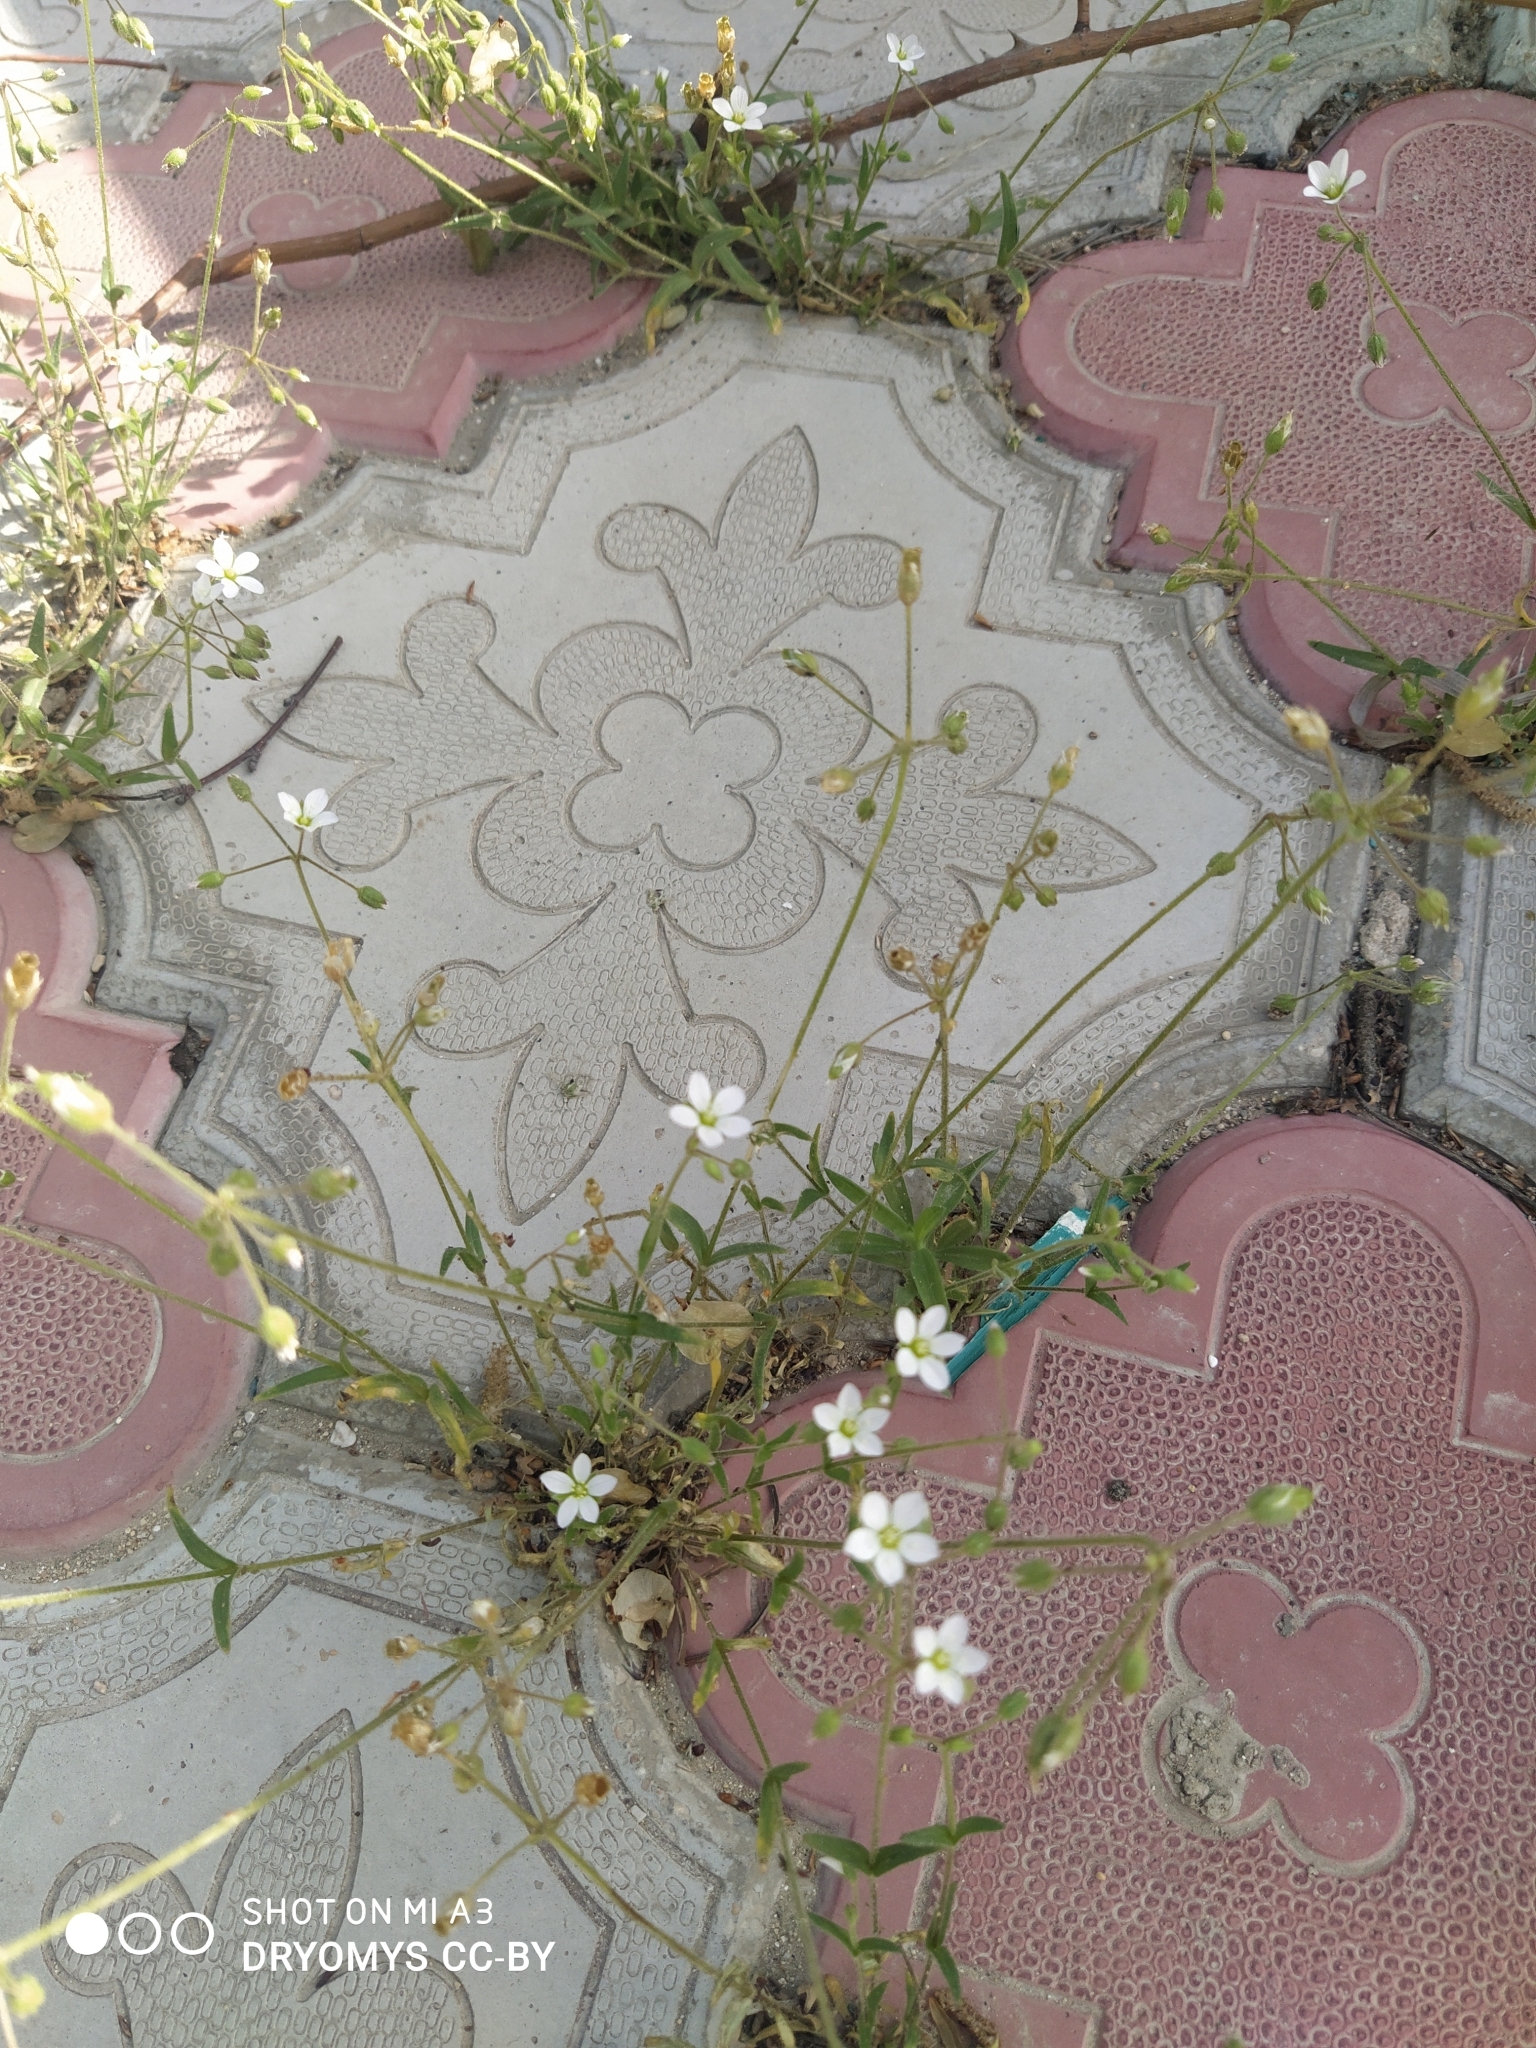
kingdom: Plantae
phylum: Tracheophyta
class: Magnoliopsida
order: Caryophyllales
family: Caryophyllaceae
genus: Holosteum
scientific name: Holosteum glutinosum
